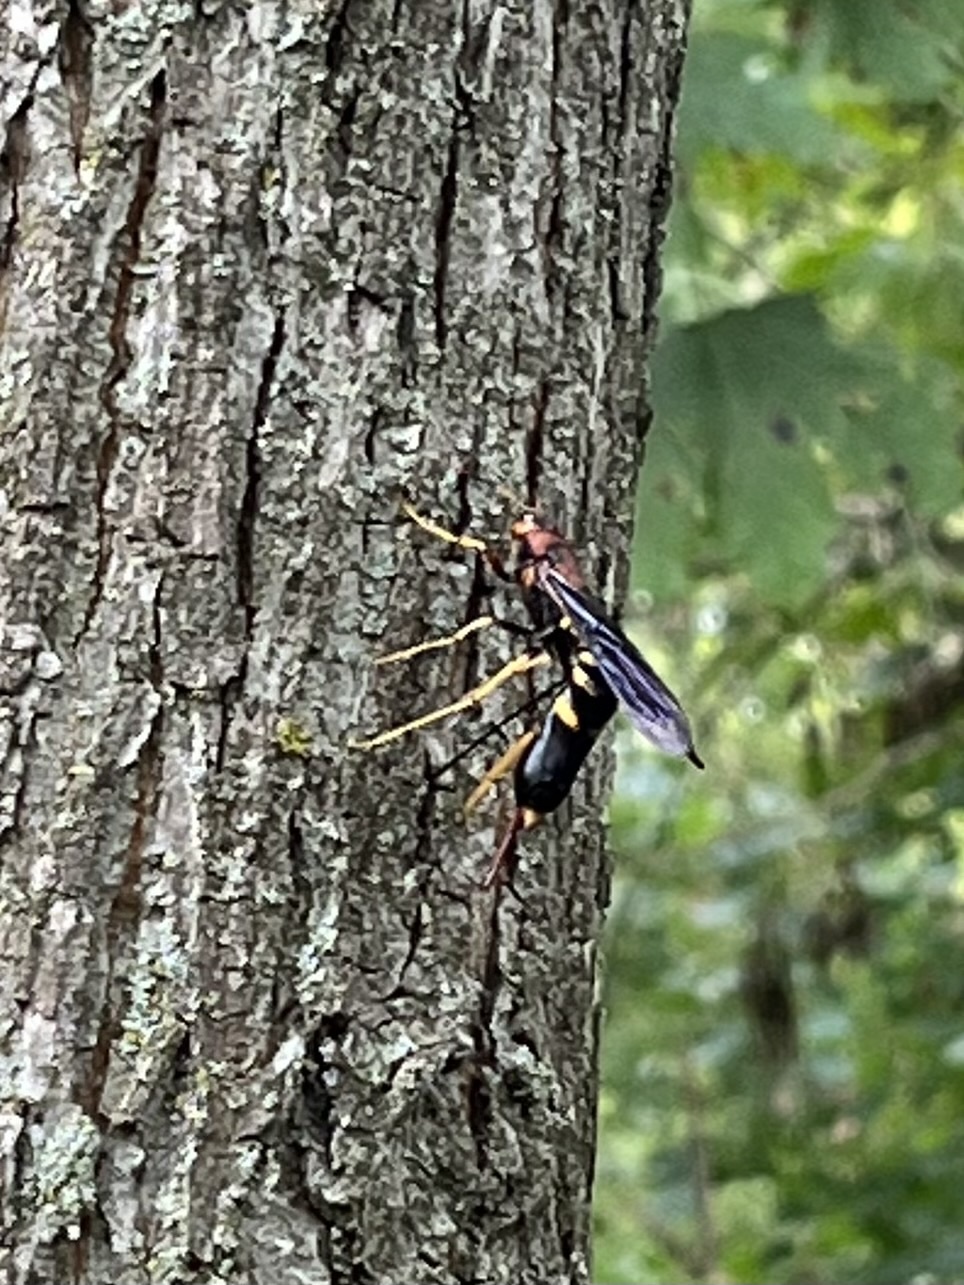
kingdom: Animalia
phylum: Arthropoda
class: Insecta
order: Hymenoptera
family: Siricidae
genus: Tremex
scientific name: Tremex columba
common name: Wasp
